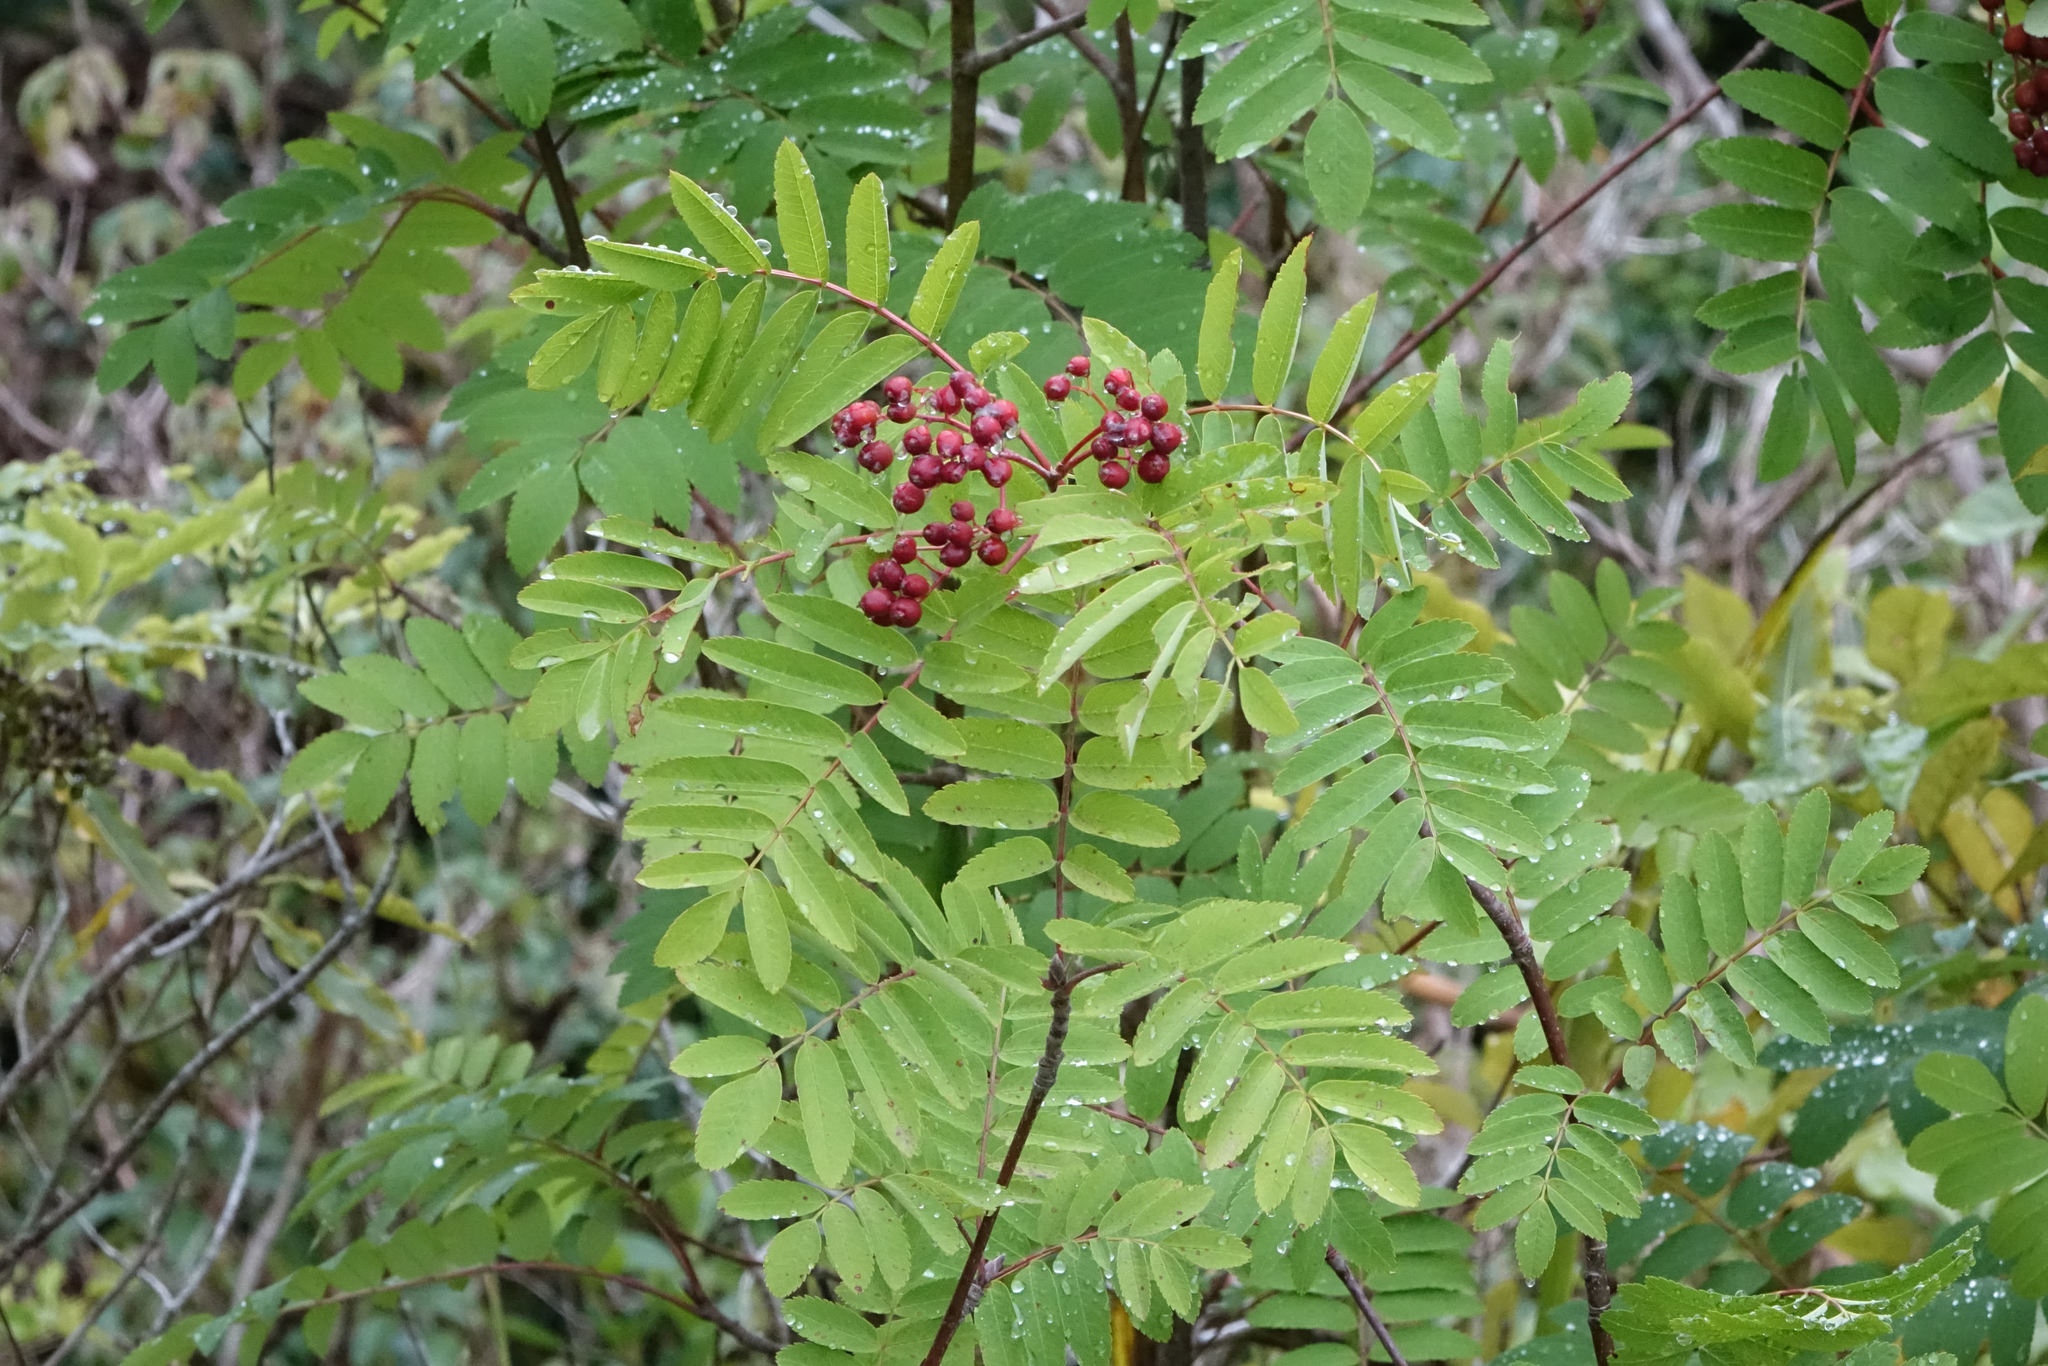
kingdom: Plantae
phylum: Tracheophyta
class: Magnoliopsida
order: Rosales
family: Rosaceae
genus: Sorbus
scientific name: Sorbus aucuparia
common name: Rowan
